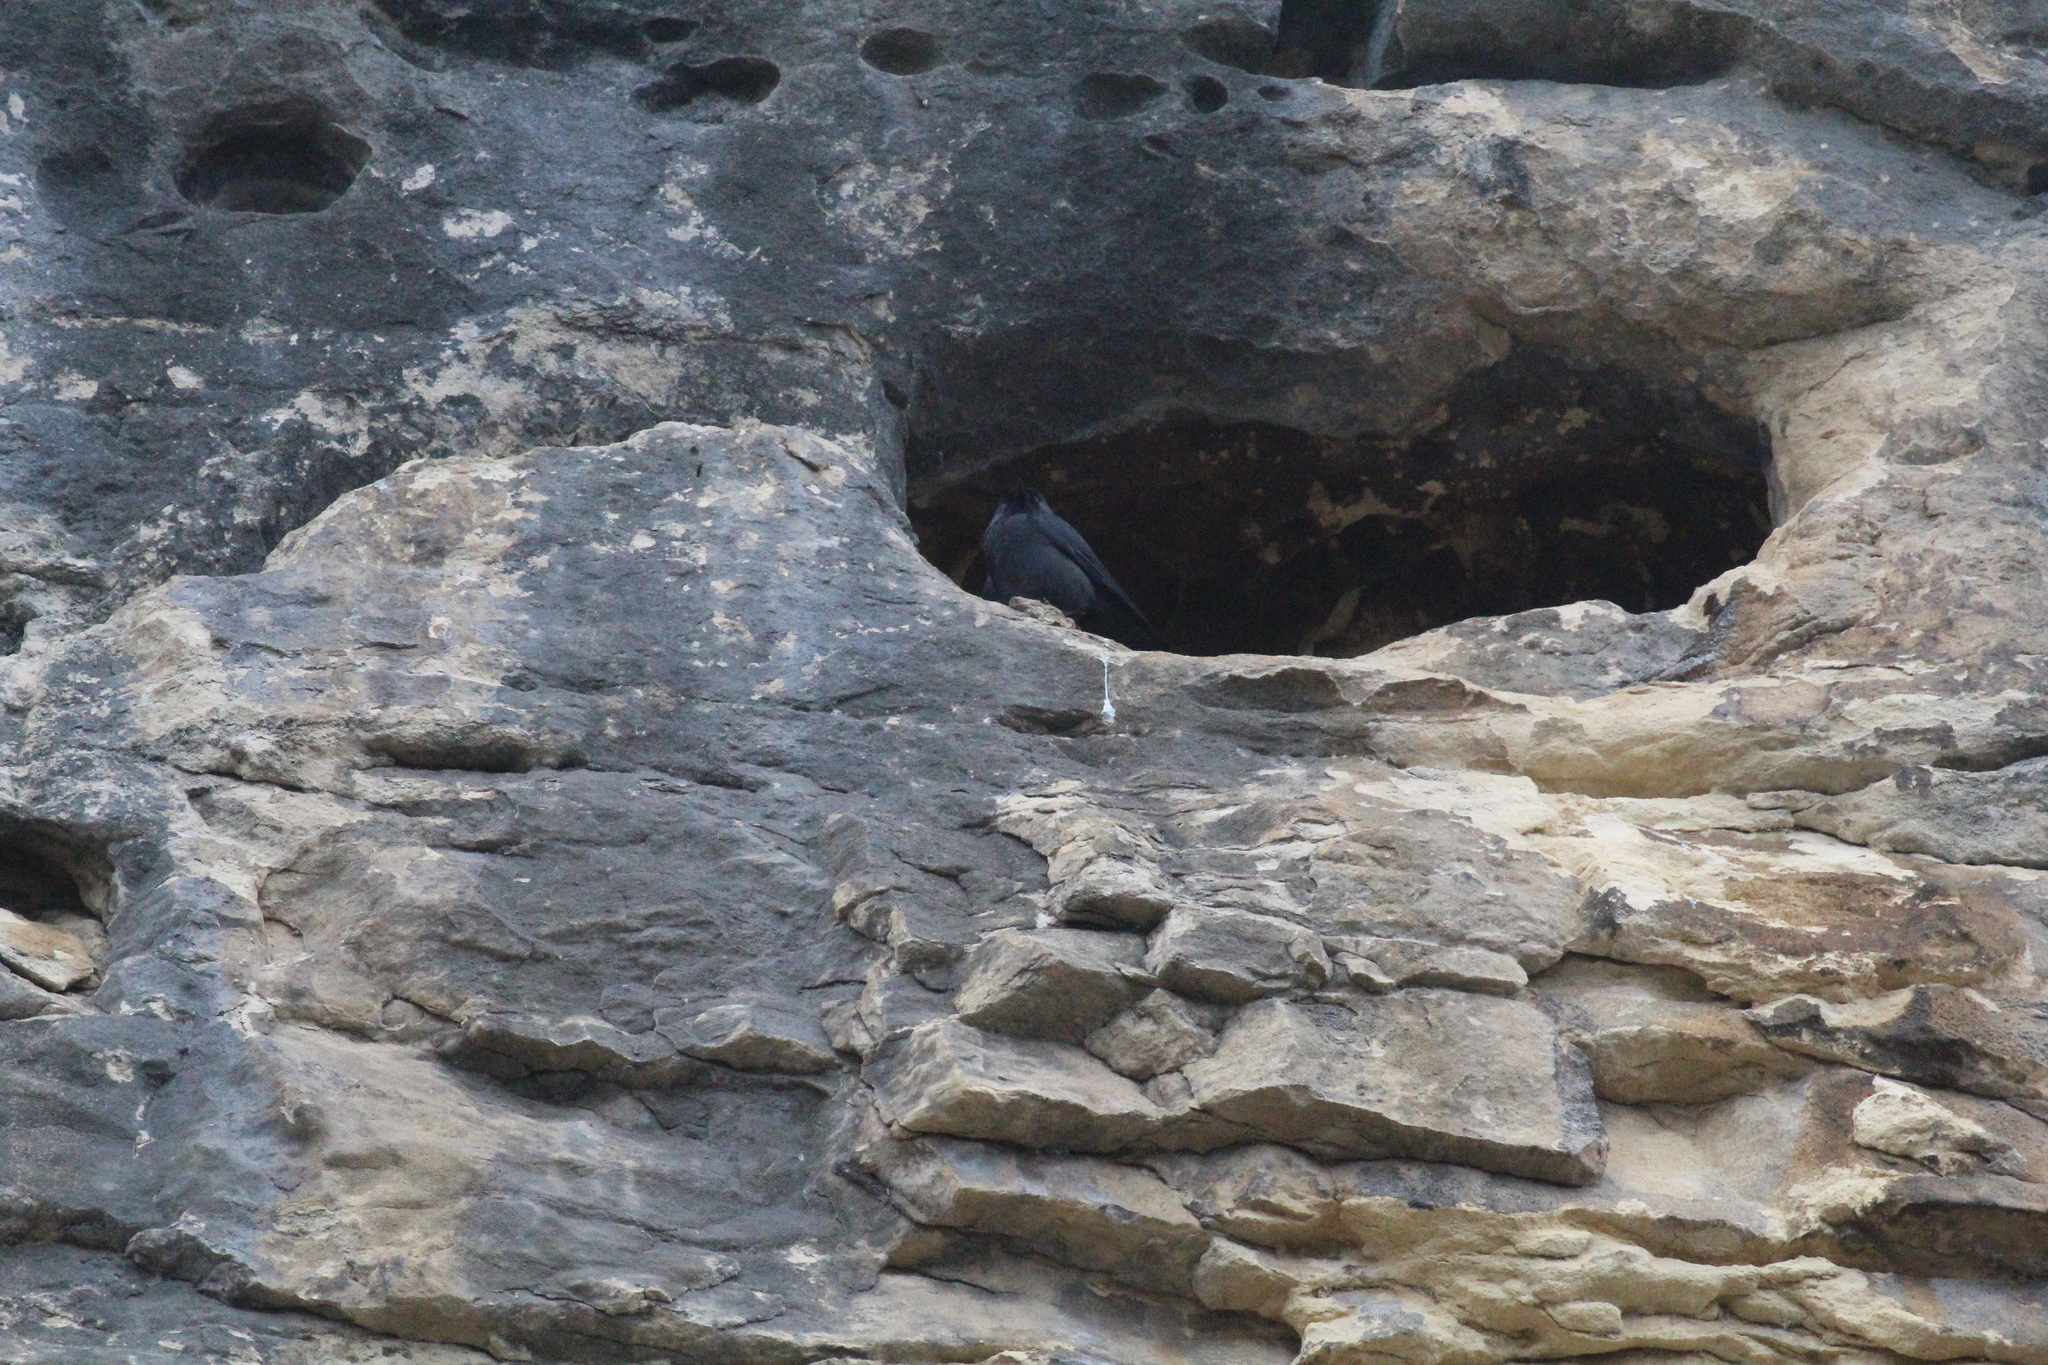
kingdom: Animalia
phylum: Chordata
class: Aves
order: Passeriformes
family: Corvidae
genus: Coloeus
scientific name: Coloeus monedula
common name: Western jackdaw
